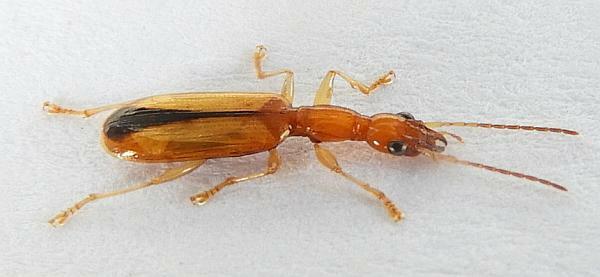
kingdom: Animalia
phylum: Arthropoda
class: Insecta
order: Coleoptera
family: Carabidae
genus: Leptotrachelus
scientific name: Leptotrachelus depressus
